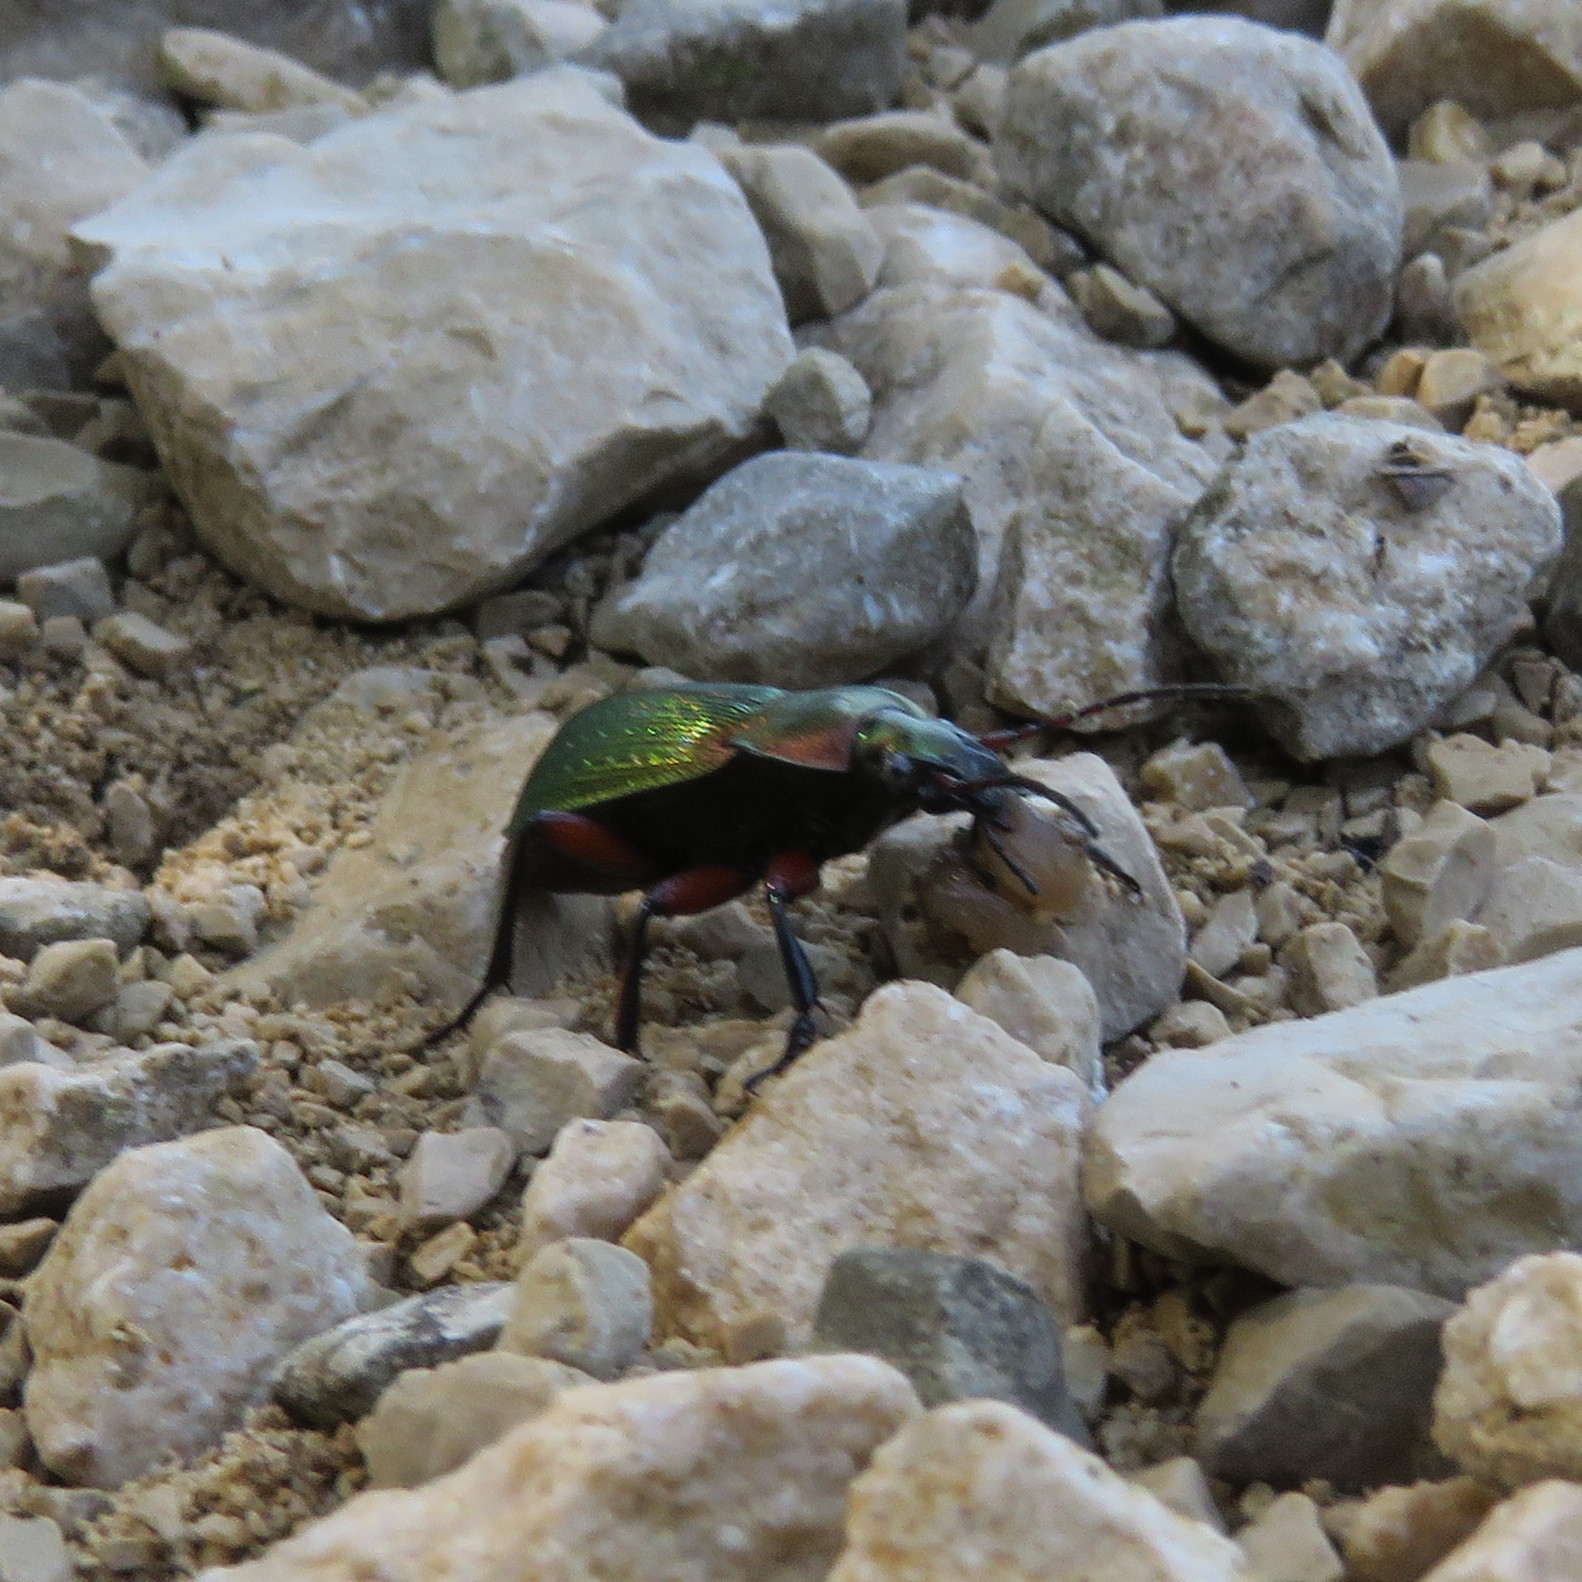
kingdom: Animalia
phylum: Arthropoda
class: Insecta
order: Coleoptera
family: Carabidae
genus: Carabus
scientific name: Carabus monilis
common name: Necklace ground beetle
